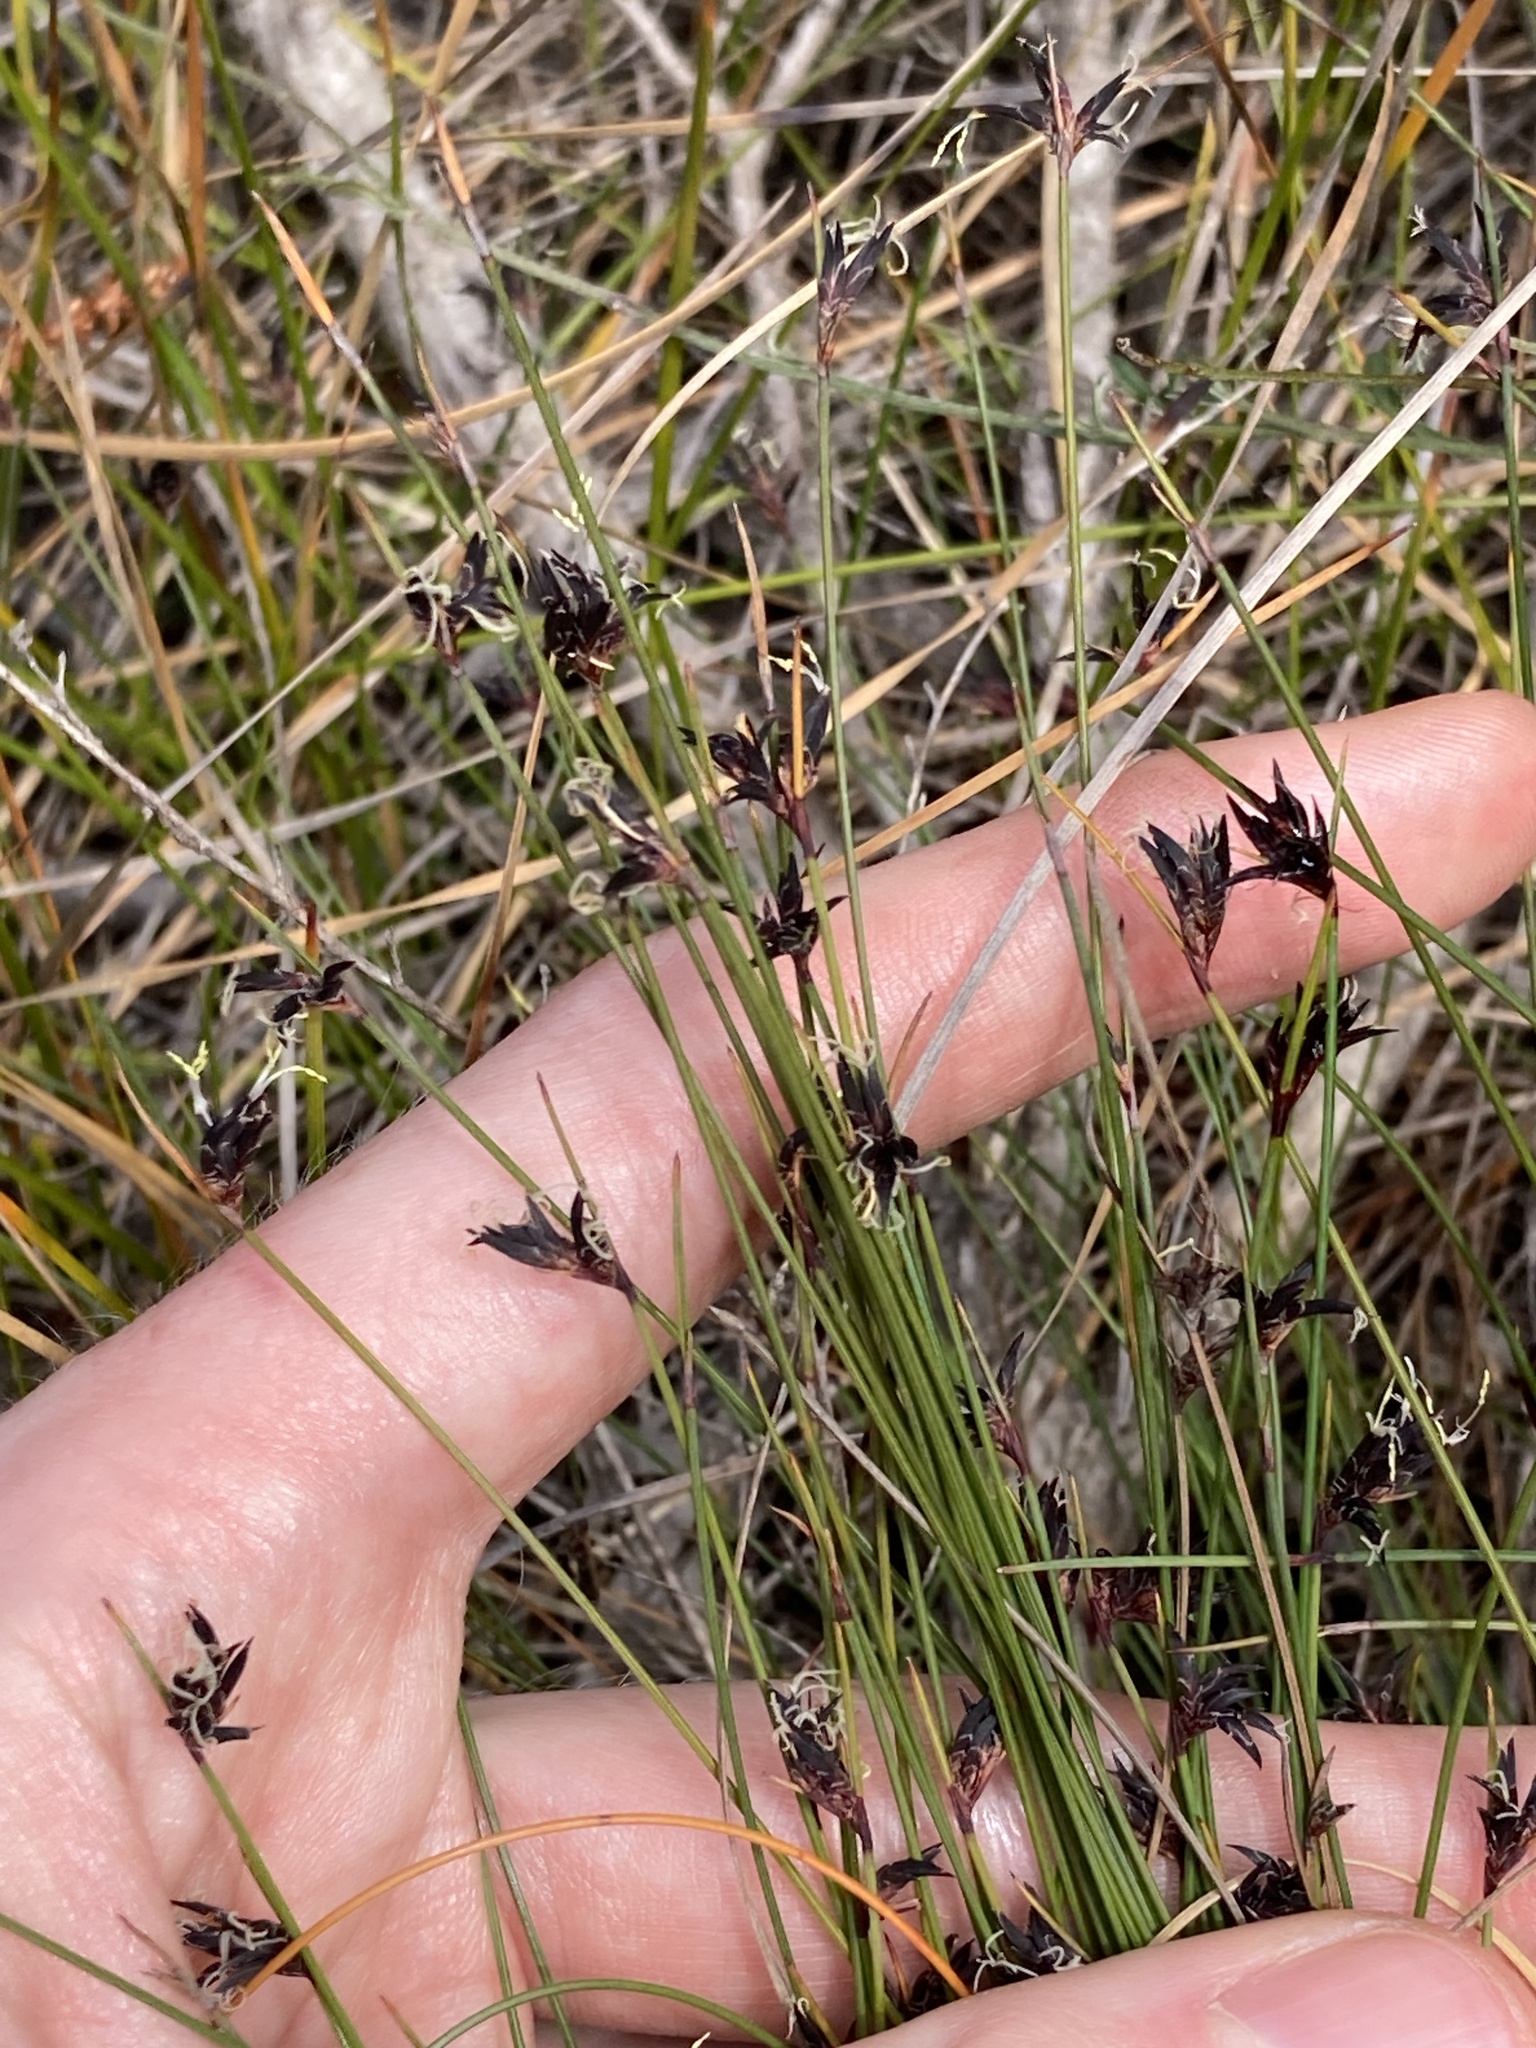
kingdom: Plantae
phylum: Tracheophyta
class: Liliopsida
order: Poales
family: Cyperaceae
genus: Schoenus
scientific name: Schoenus ericetorum
